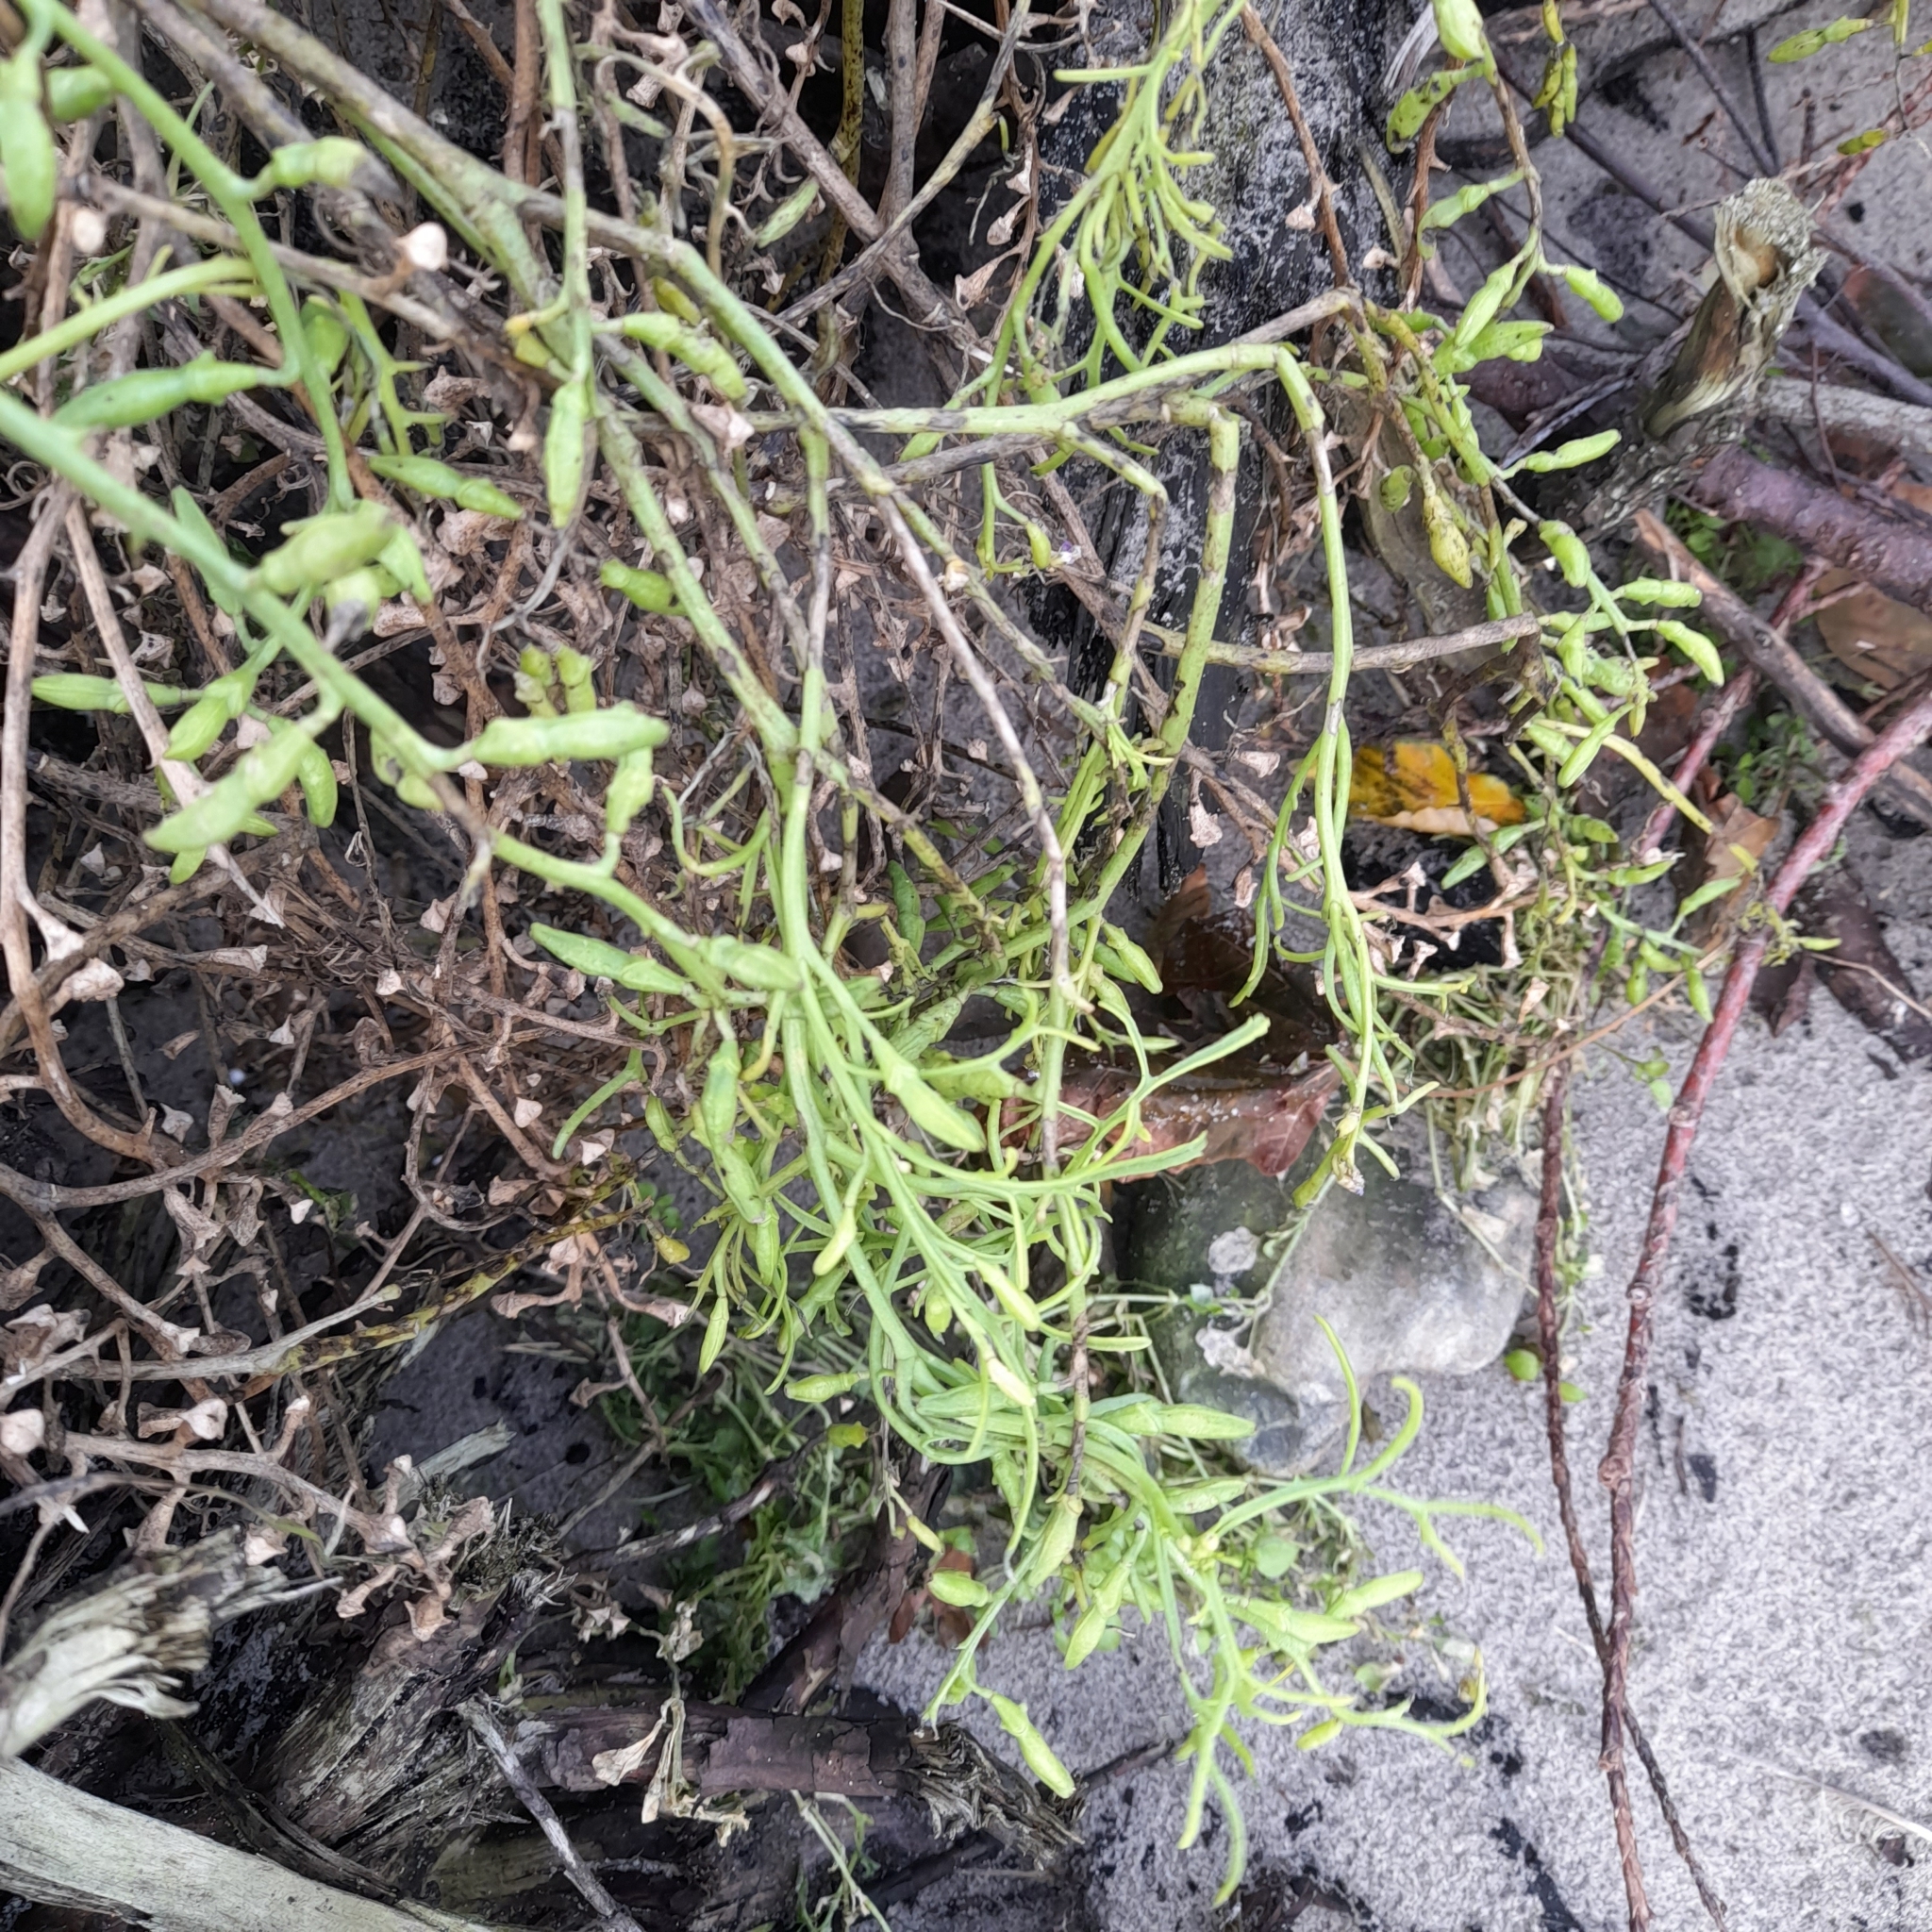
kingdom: Plantae
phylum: Tracheophyta
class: Magnoliopsida
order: Brassicales
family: Brassicaceae
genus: Cakile
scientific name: Cakile maritima
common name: Sea rocket
